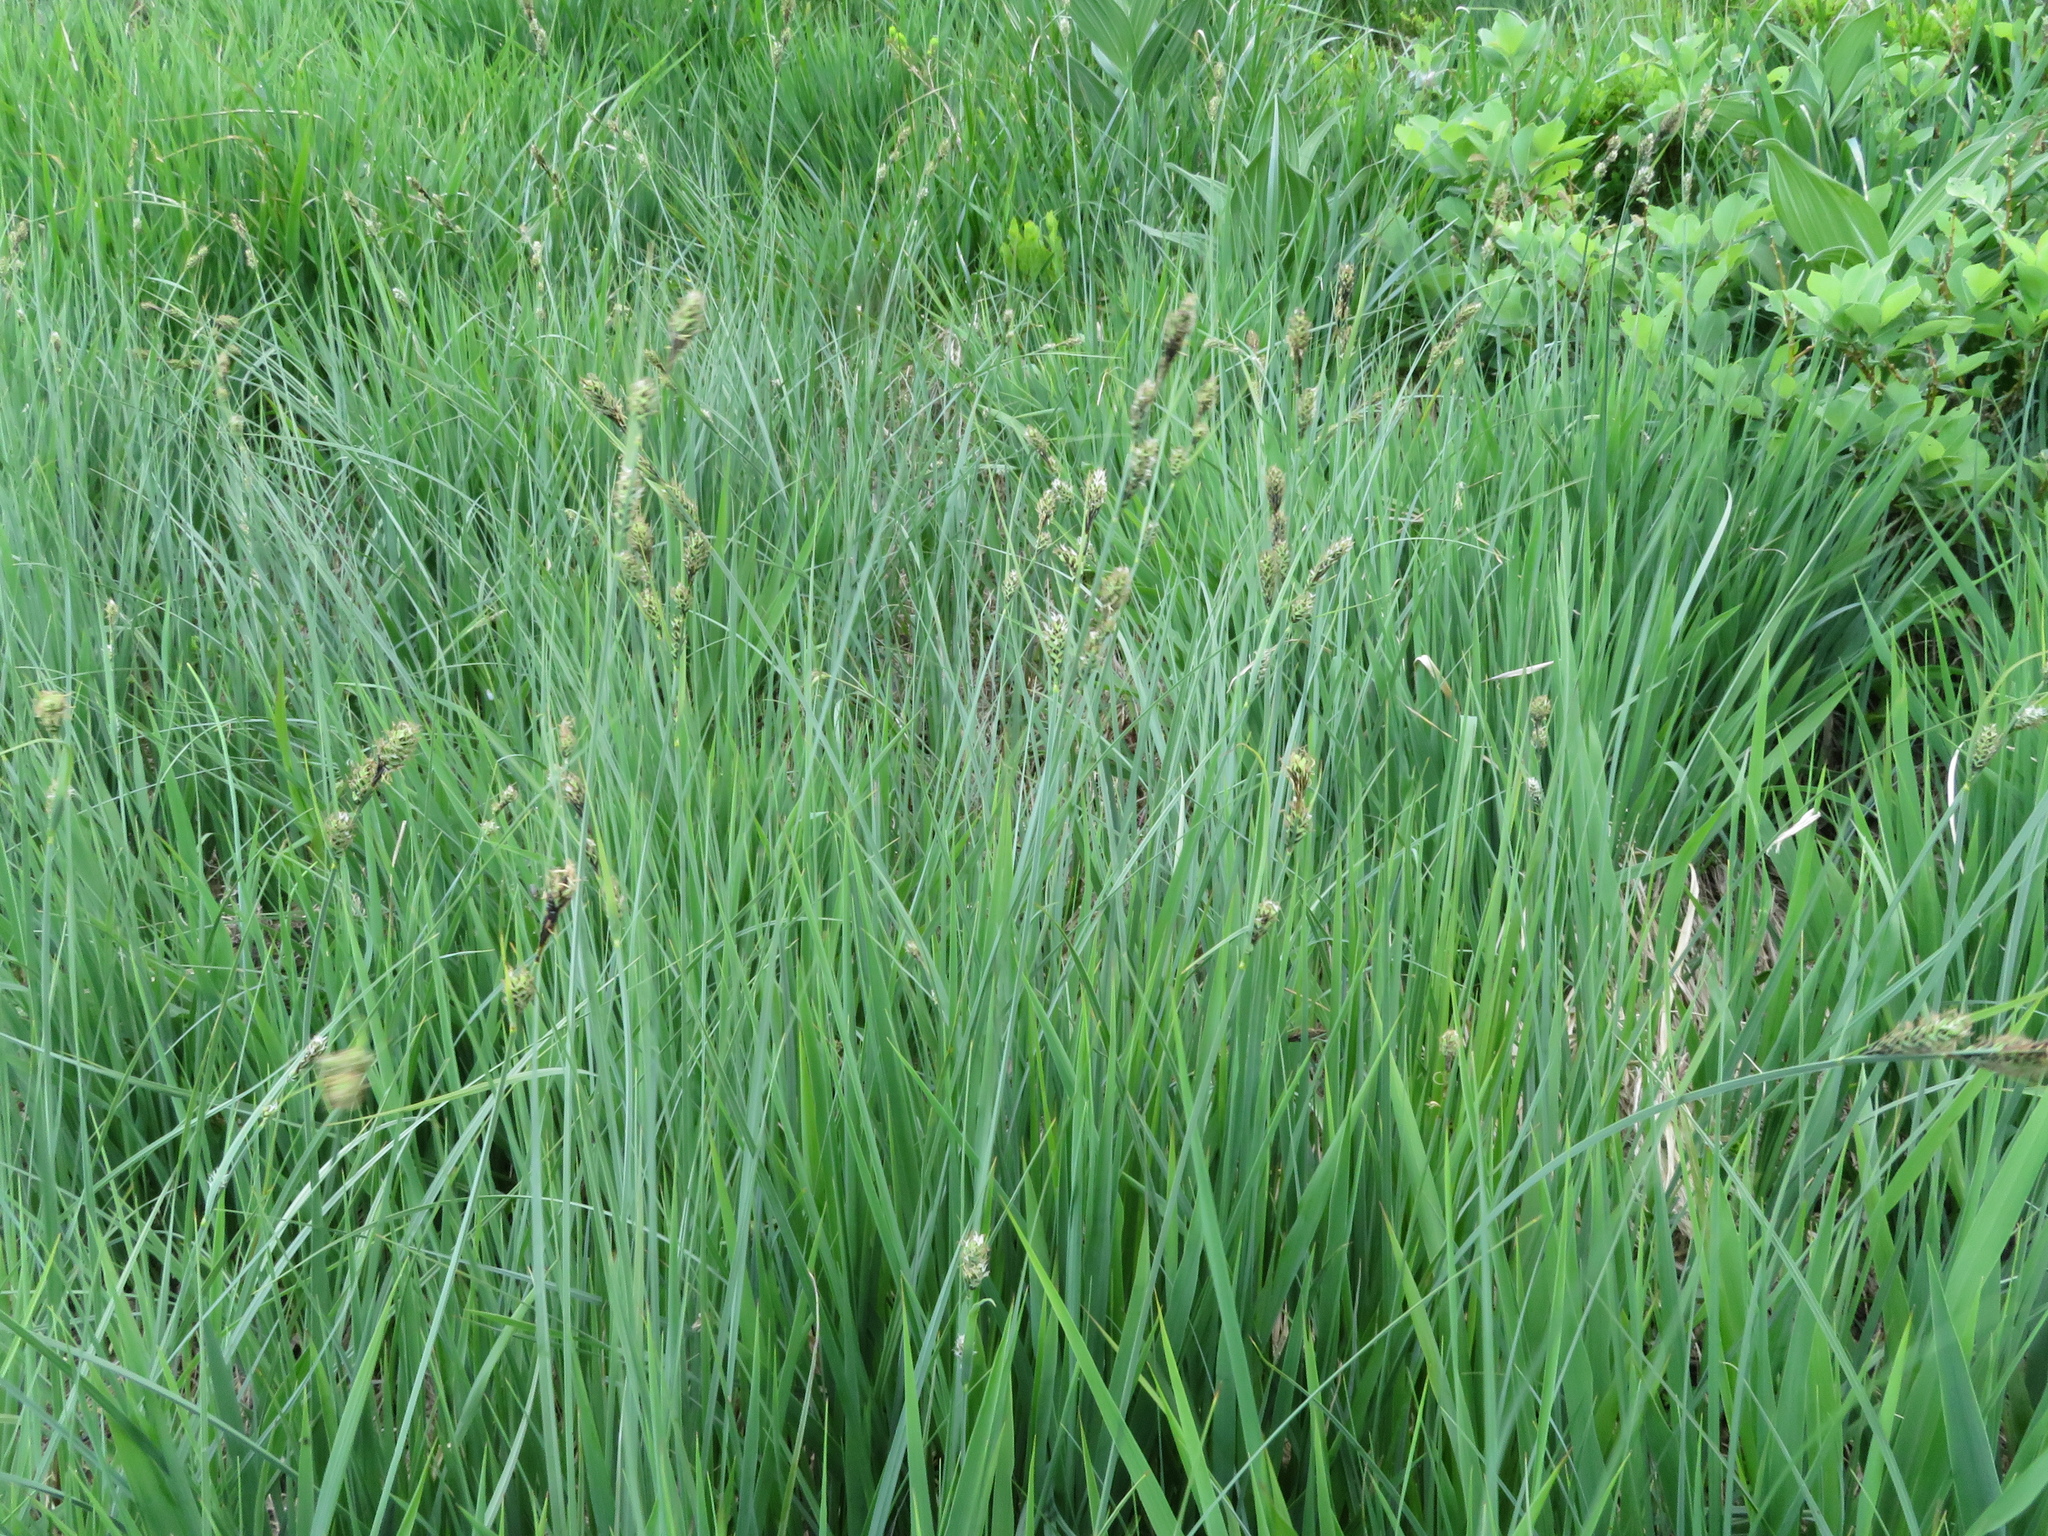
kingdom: Plantae
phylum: Tracheophyta
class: Liliopsida
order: Poales
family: Cyperaceae
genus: Carex
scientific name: Carex buxbaumii
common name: Club sedge
